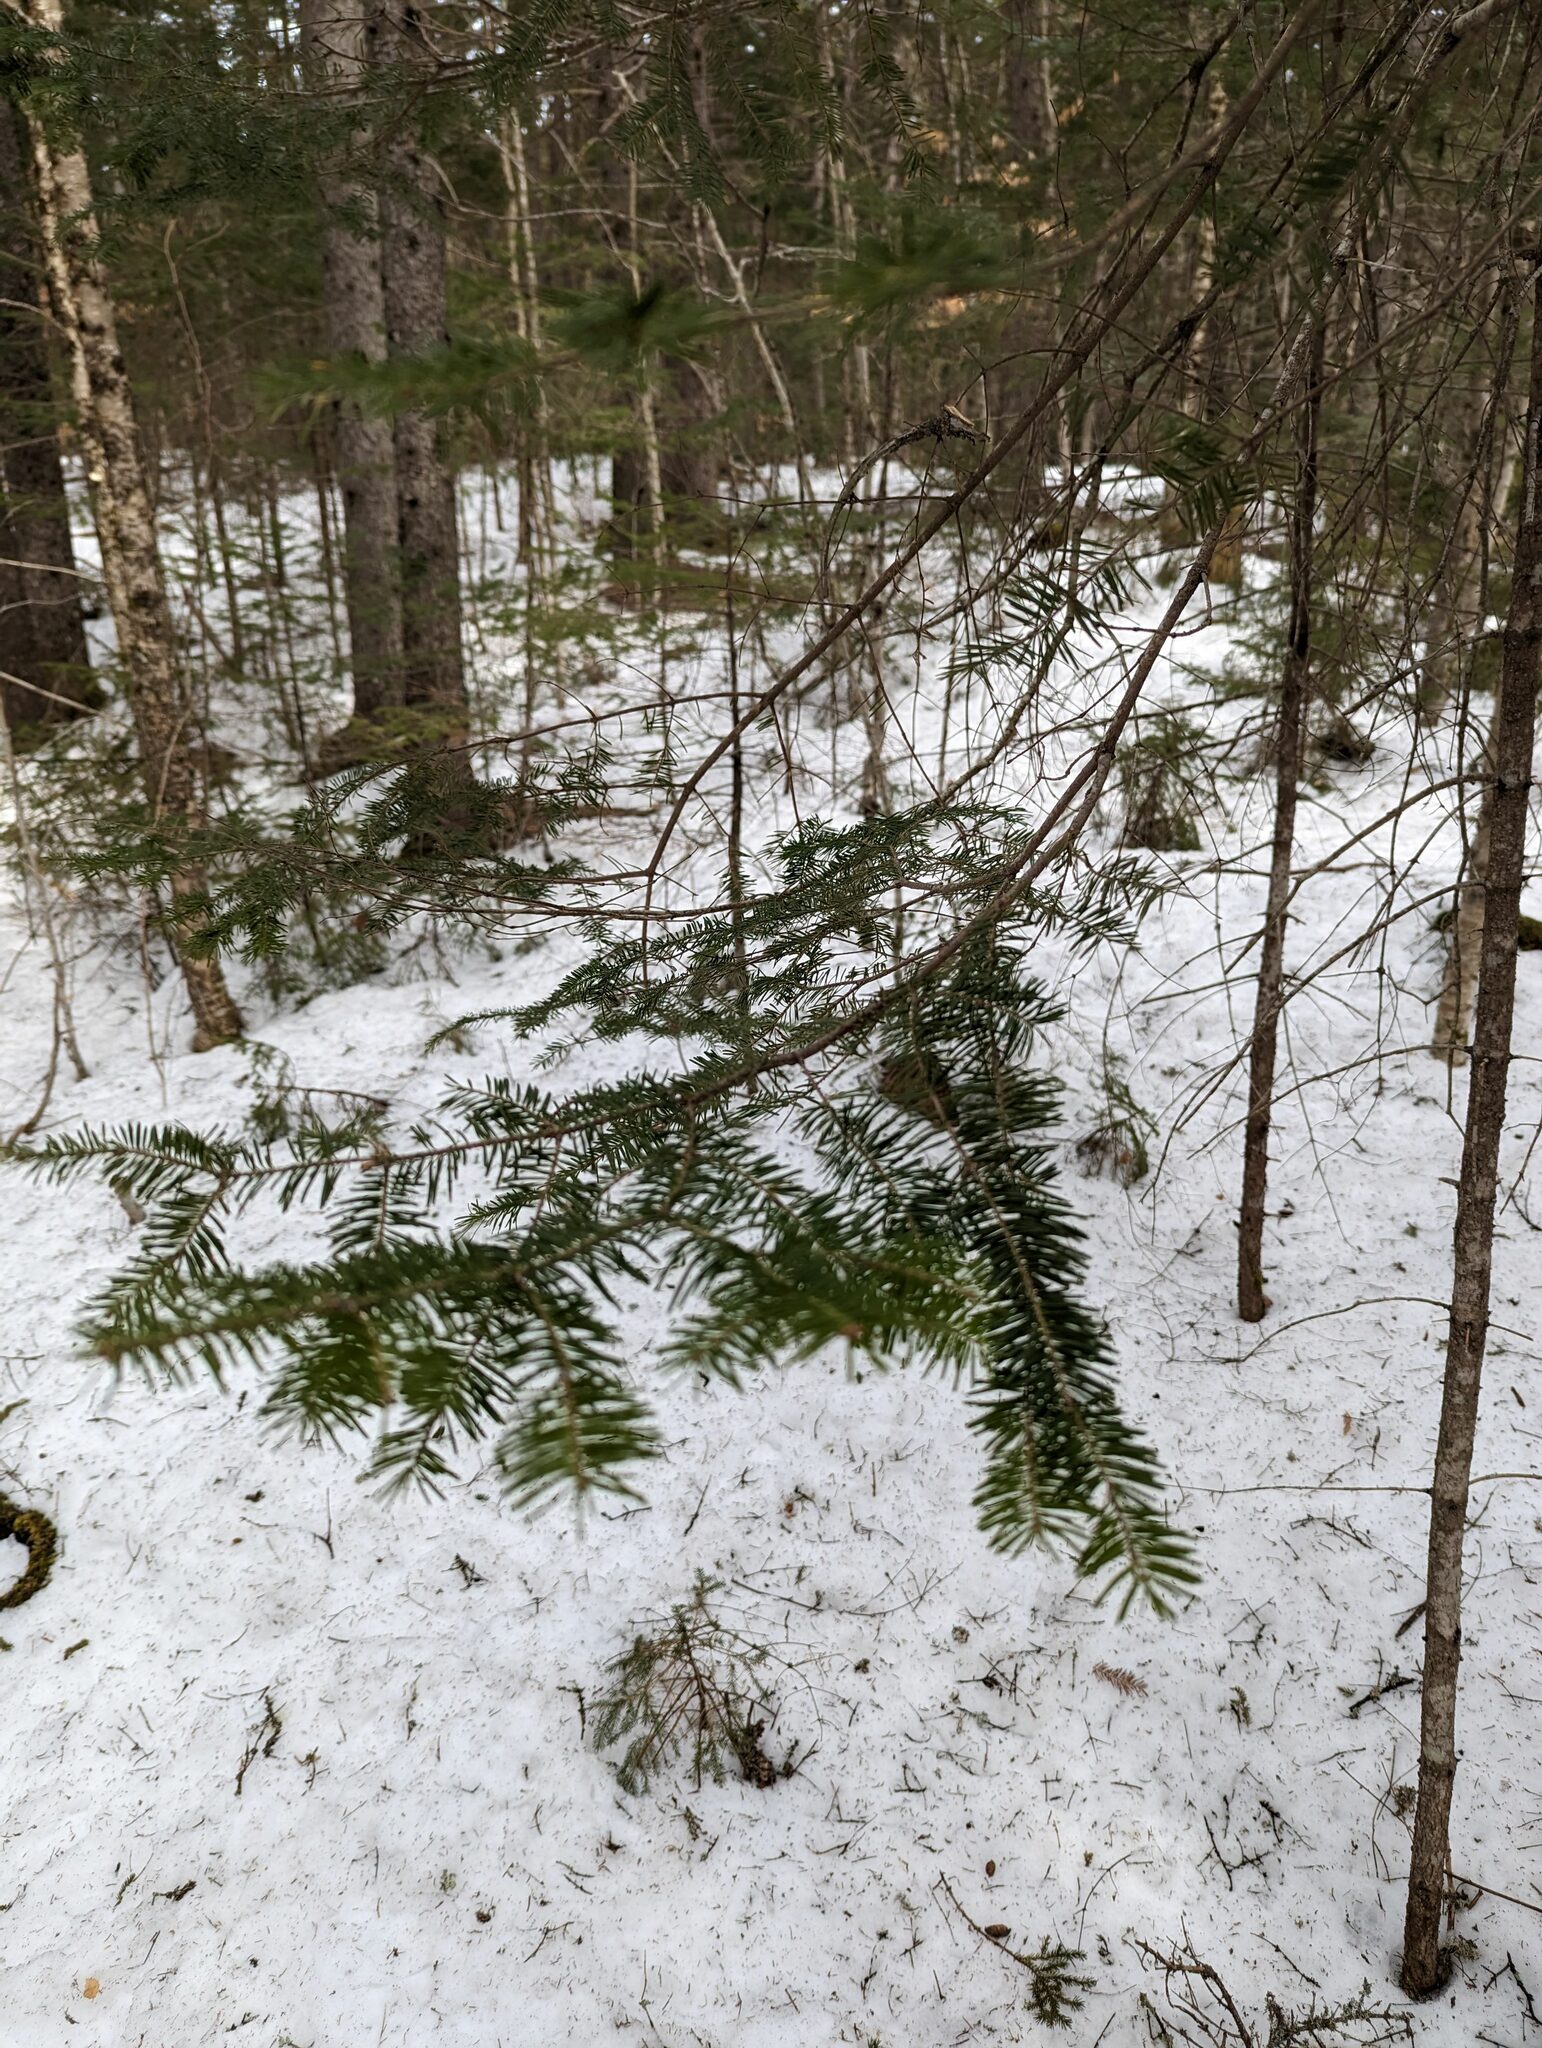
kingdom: Plantae
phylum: Tracheophyta
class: Pinopsida
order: Pinales
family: Pinaceae
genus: Abies
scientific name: Abies balsamea
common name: Balsam fir
